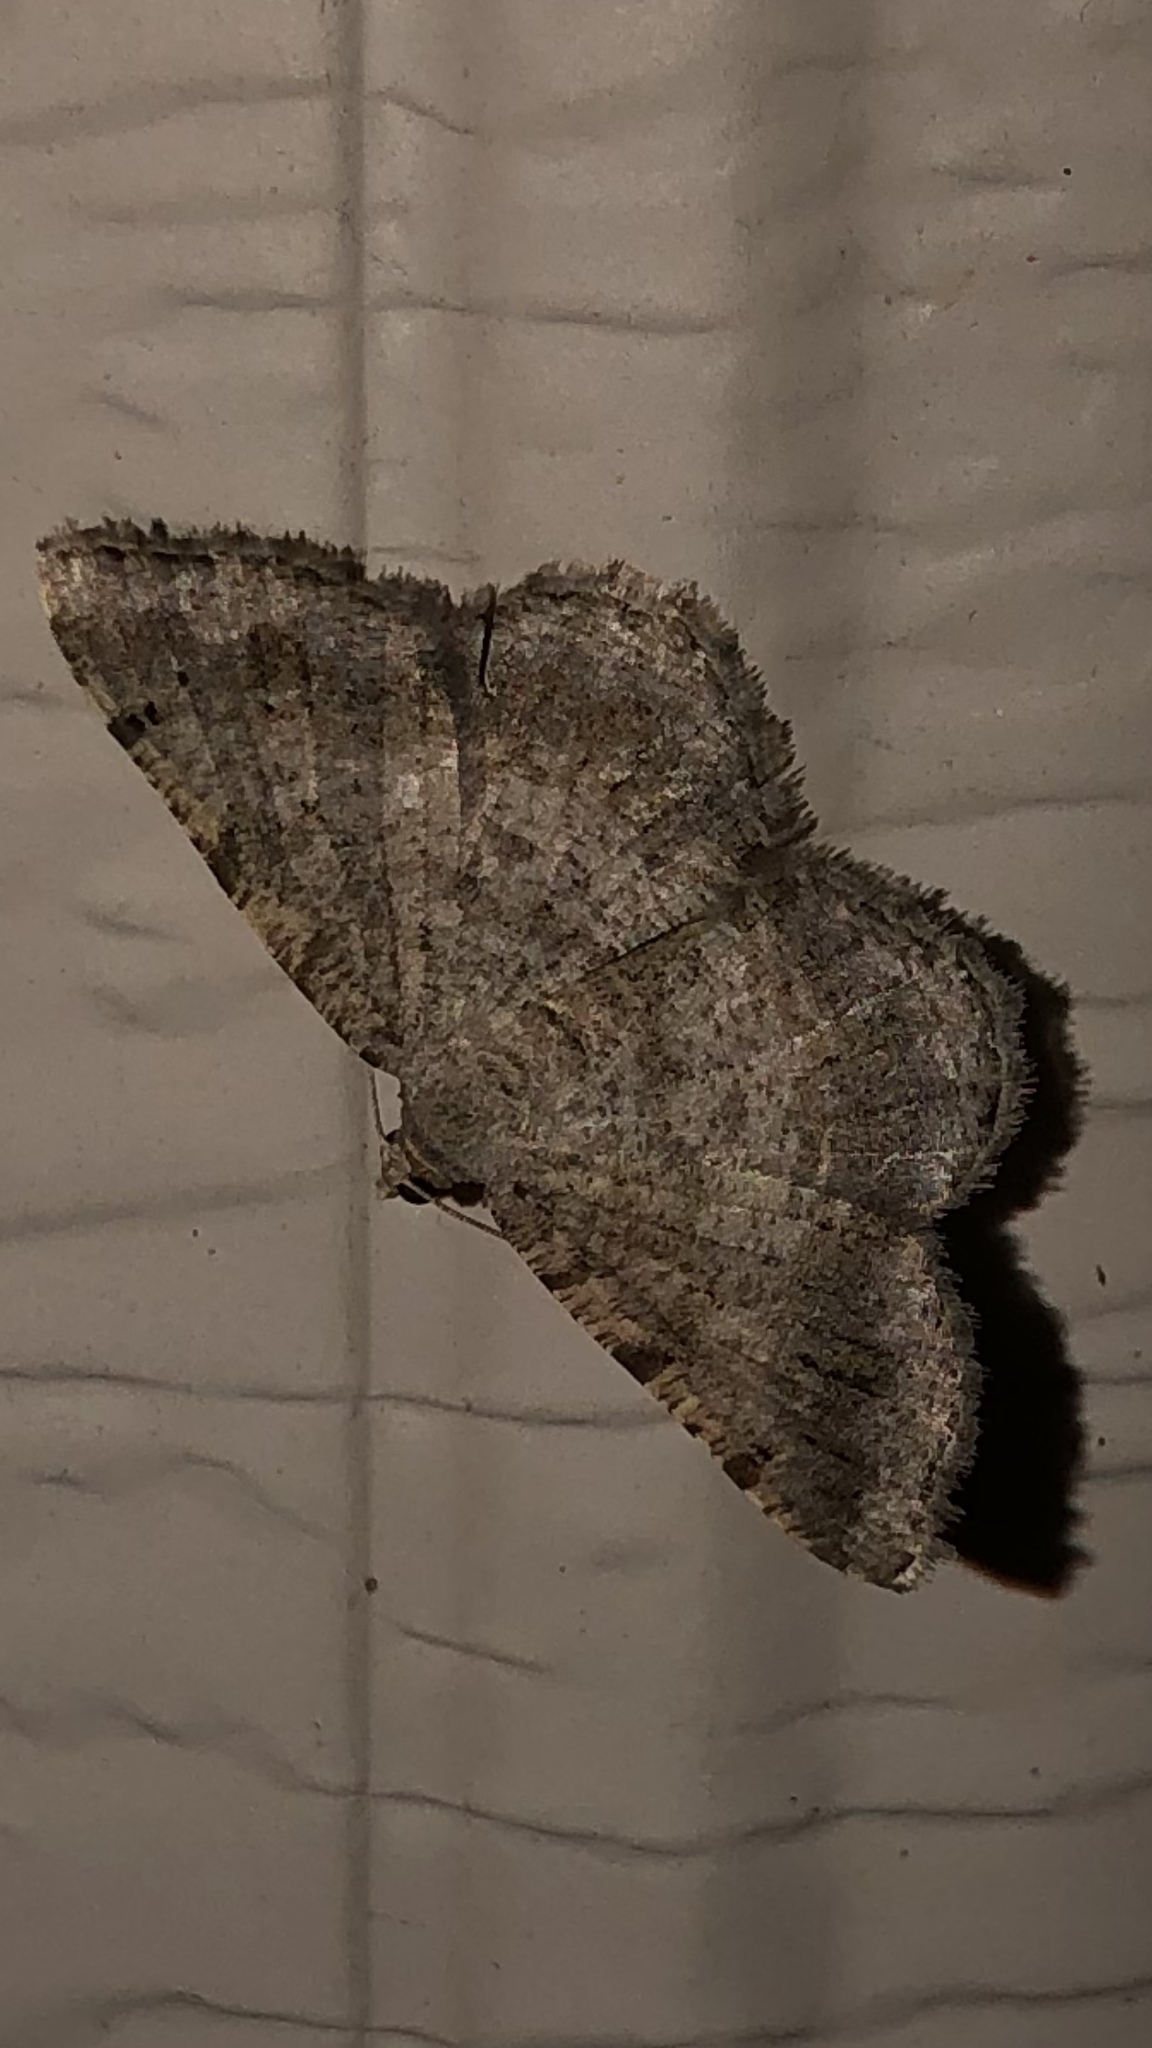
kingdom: Animalia
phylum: Arthropoda
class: Insecta
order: Lepidoptera
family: Geometridae
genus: Digrammia
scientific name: Digrammia ocellinata
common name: Faint-spotted angle
